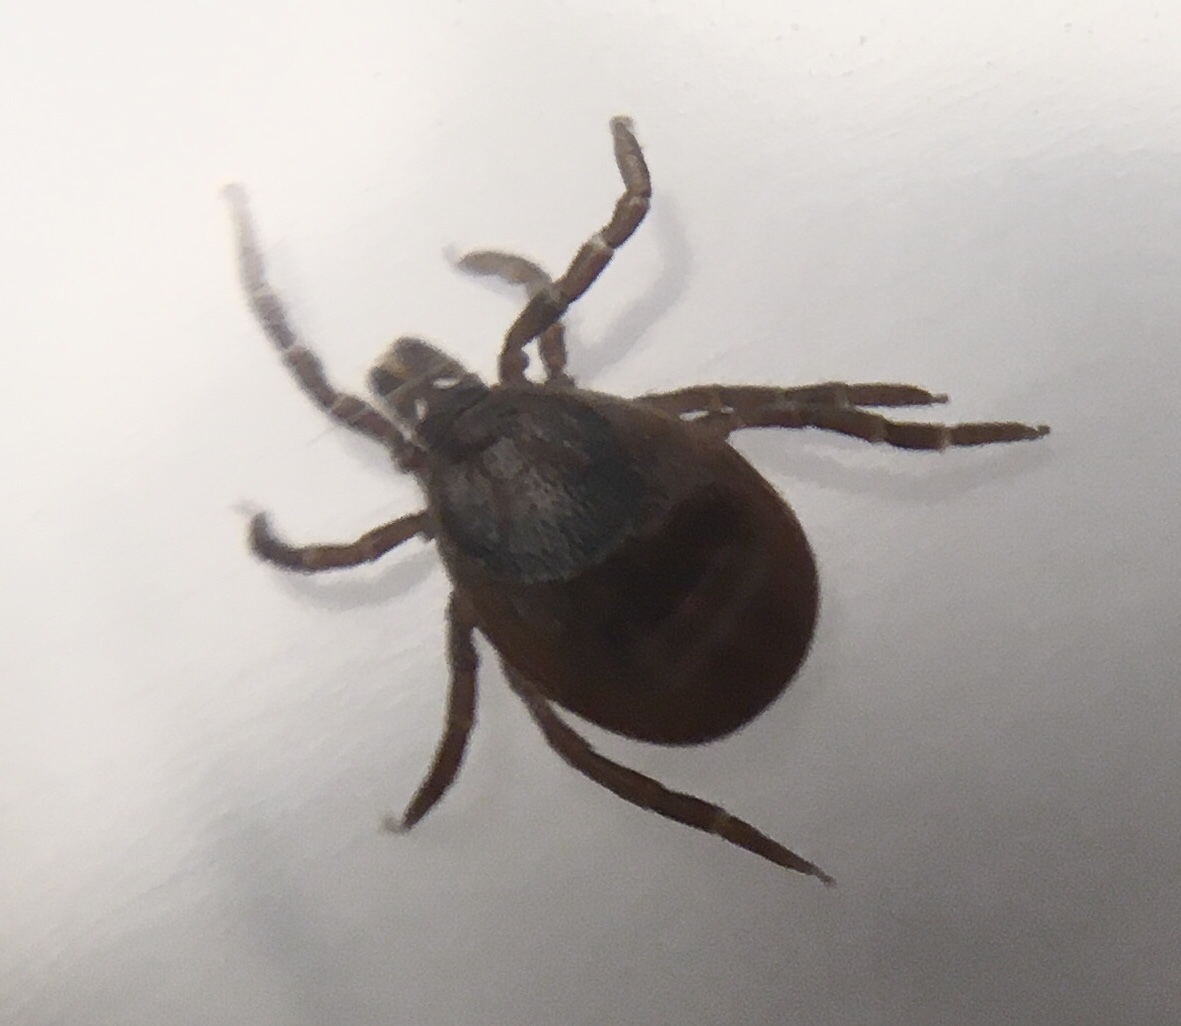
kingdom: Animalia
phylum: Arthropoda
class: Arachnida
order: Ixodida
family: Ixodidae
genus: Ixodes
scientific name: Ixodes scapularis
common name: Black legged tick
